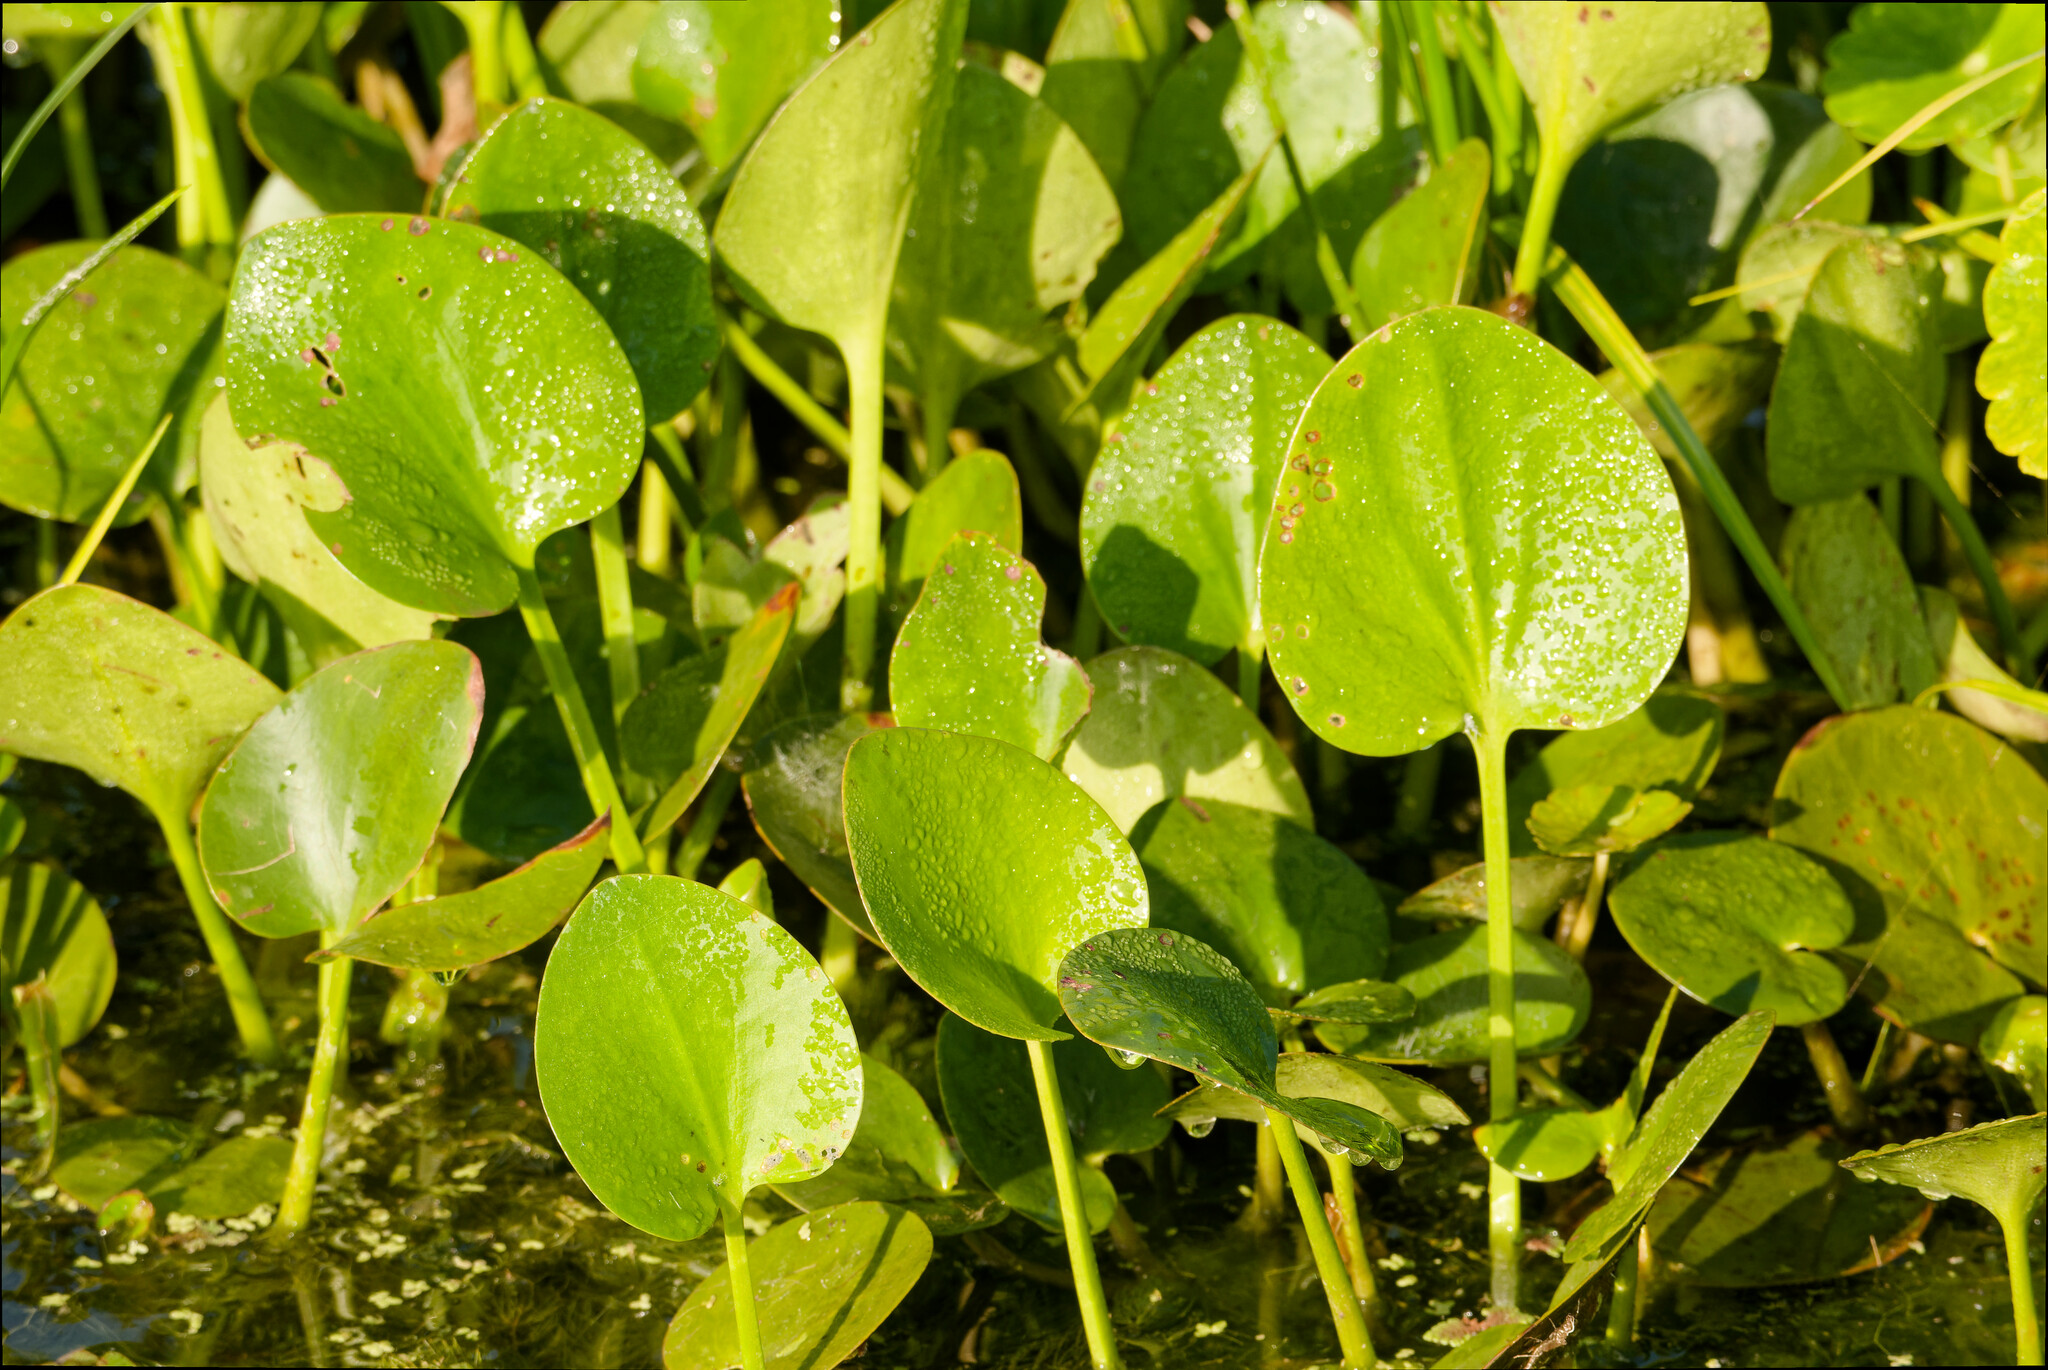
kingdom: Plantae
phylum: Tracheophyta
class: Liliopsida
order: Alismatales
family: Hydrocharitaceae
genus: Hydrocharis
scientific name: Hydrocharis spongia
